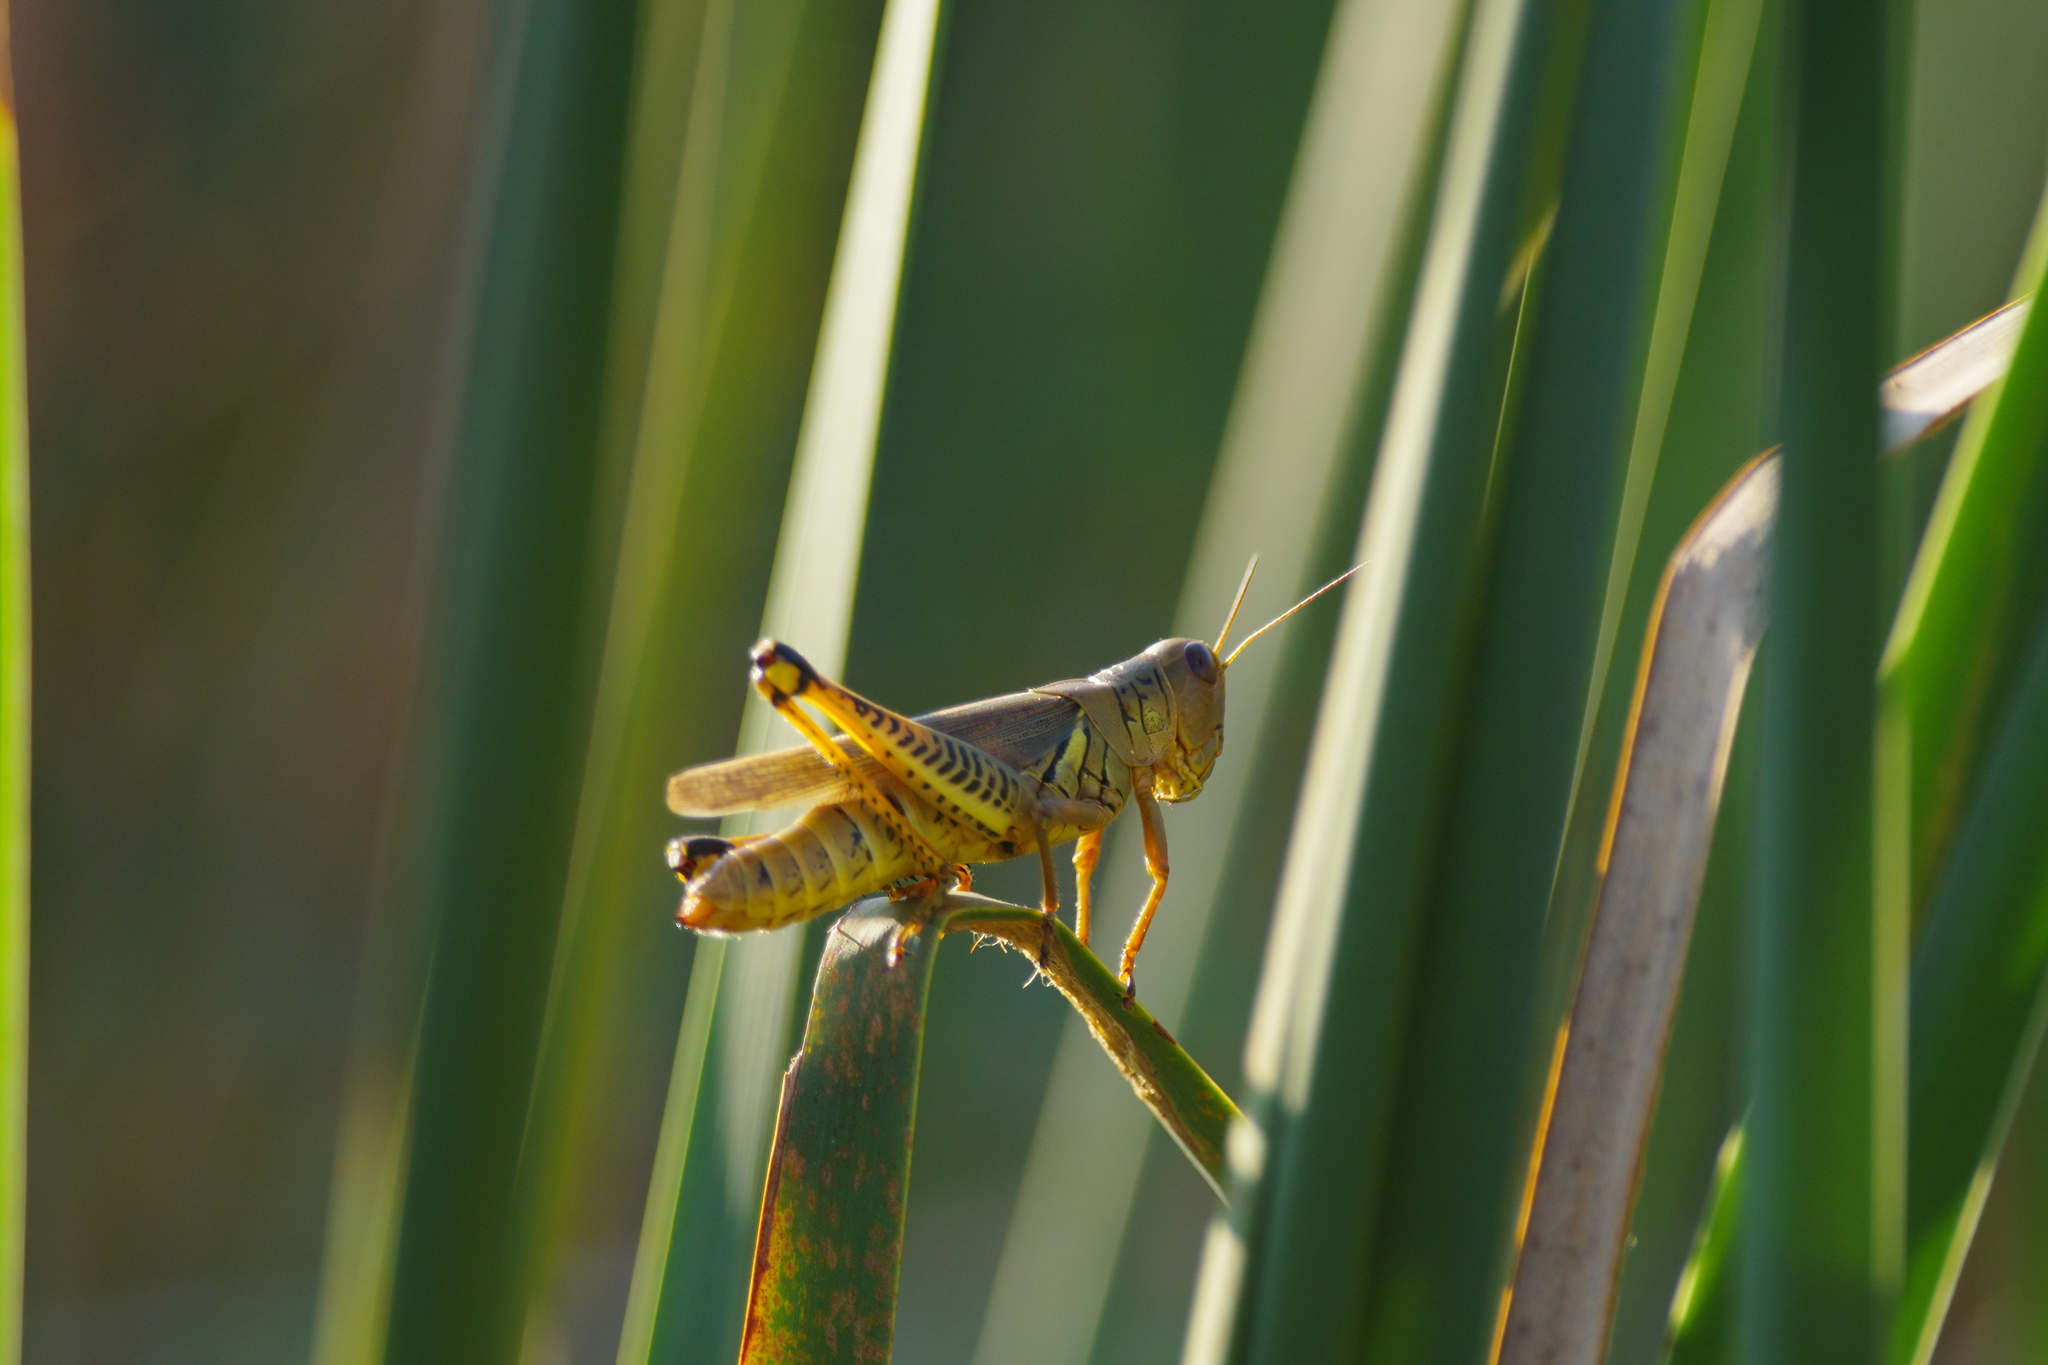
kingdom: Animalia
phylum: Arthropoda
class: Insecta
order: Orthoptera
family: Acrididae
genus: Melanoplus
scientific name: Melanoplus differentialis
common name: Differential grasshopper
